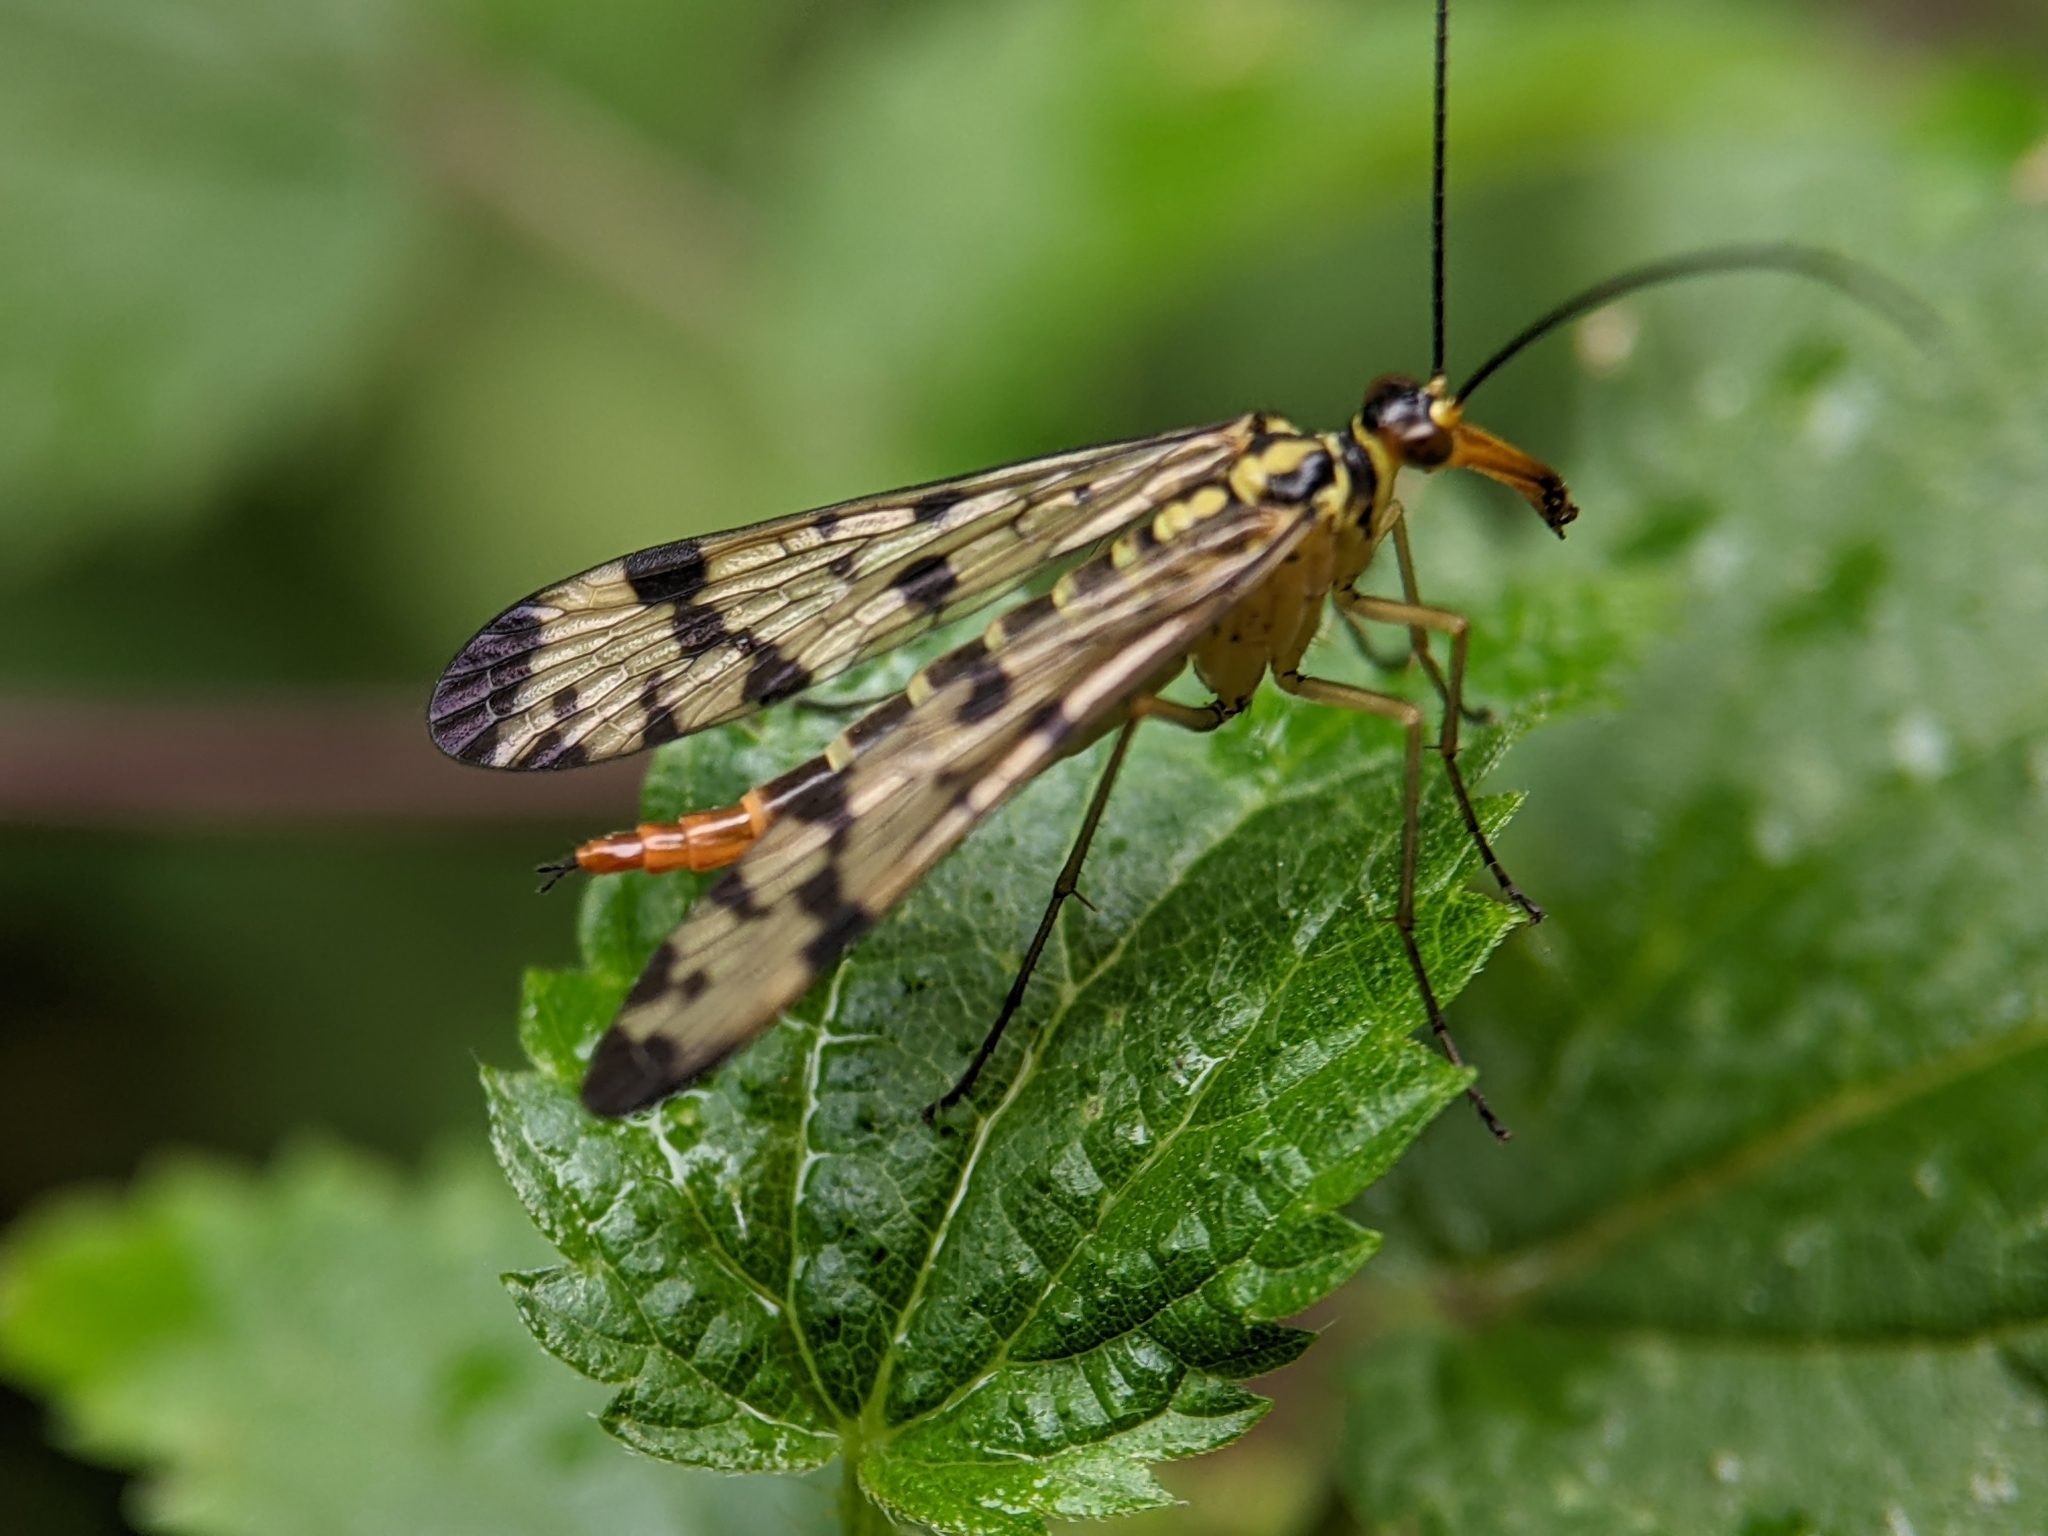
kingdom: Animalia
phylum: Arthropoda
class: Insecta
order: Mecoptera
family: Panorpidae
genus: Panorpa
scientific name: Panorpa germanica
